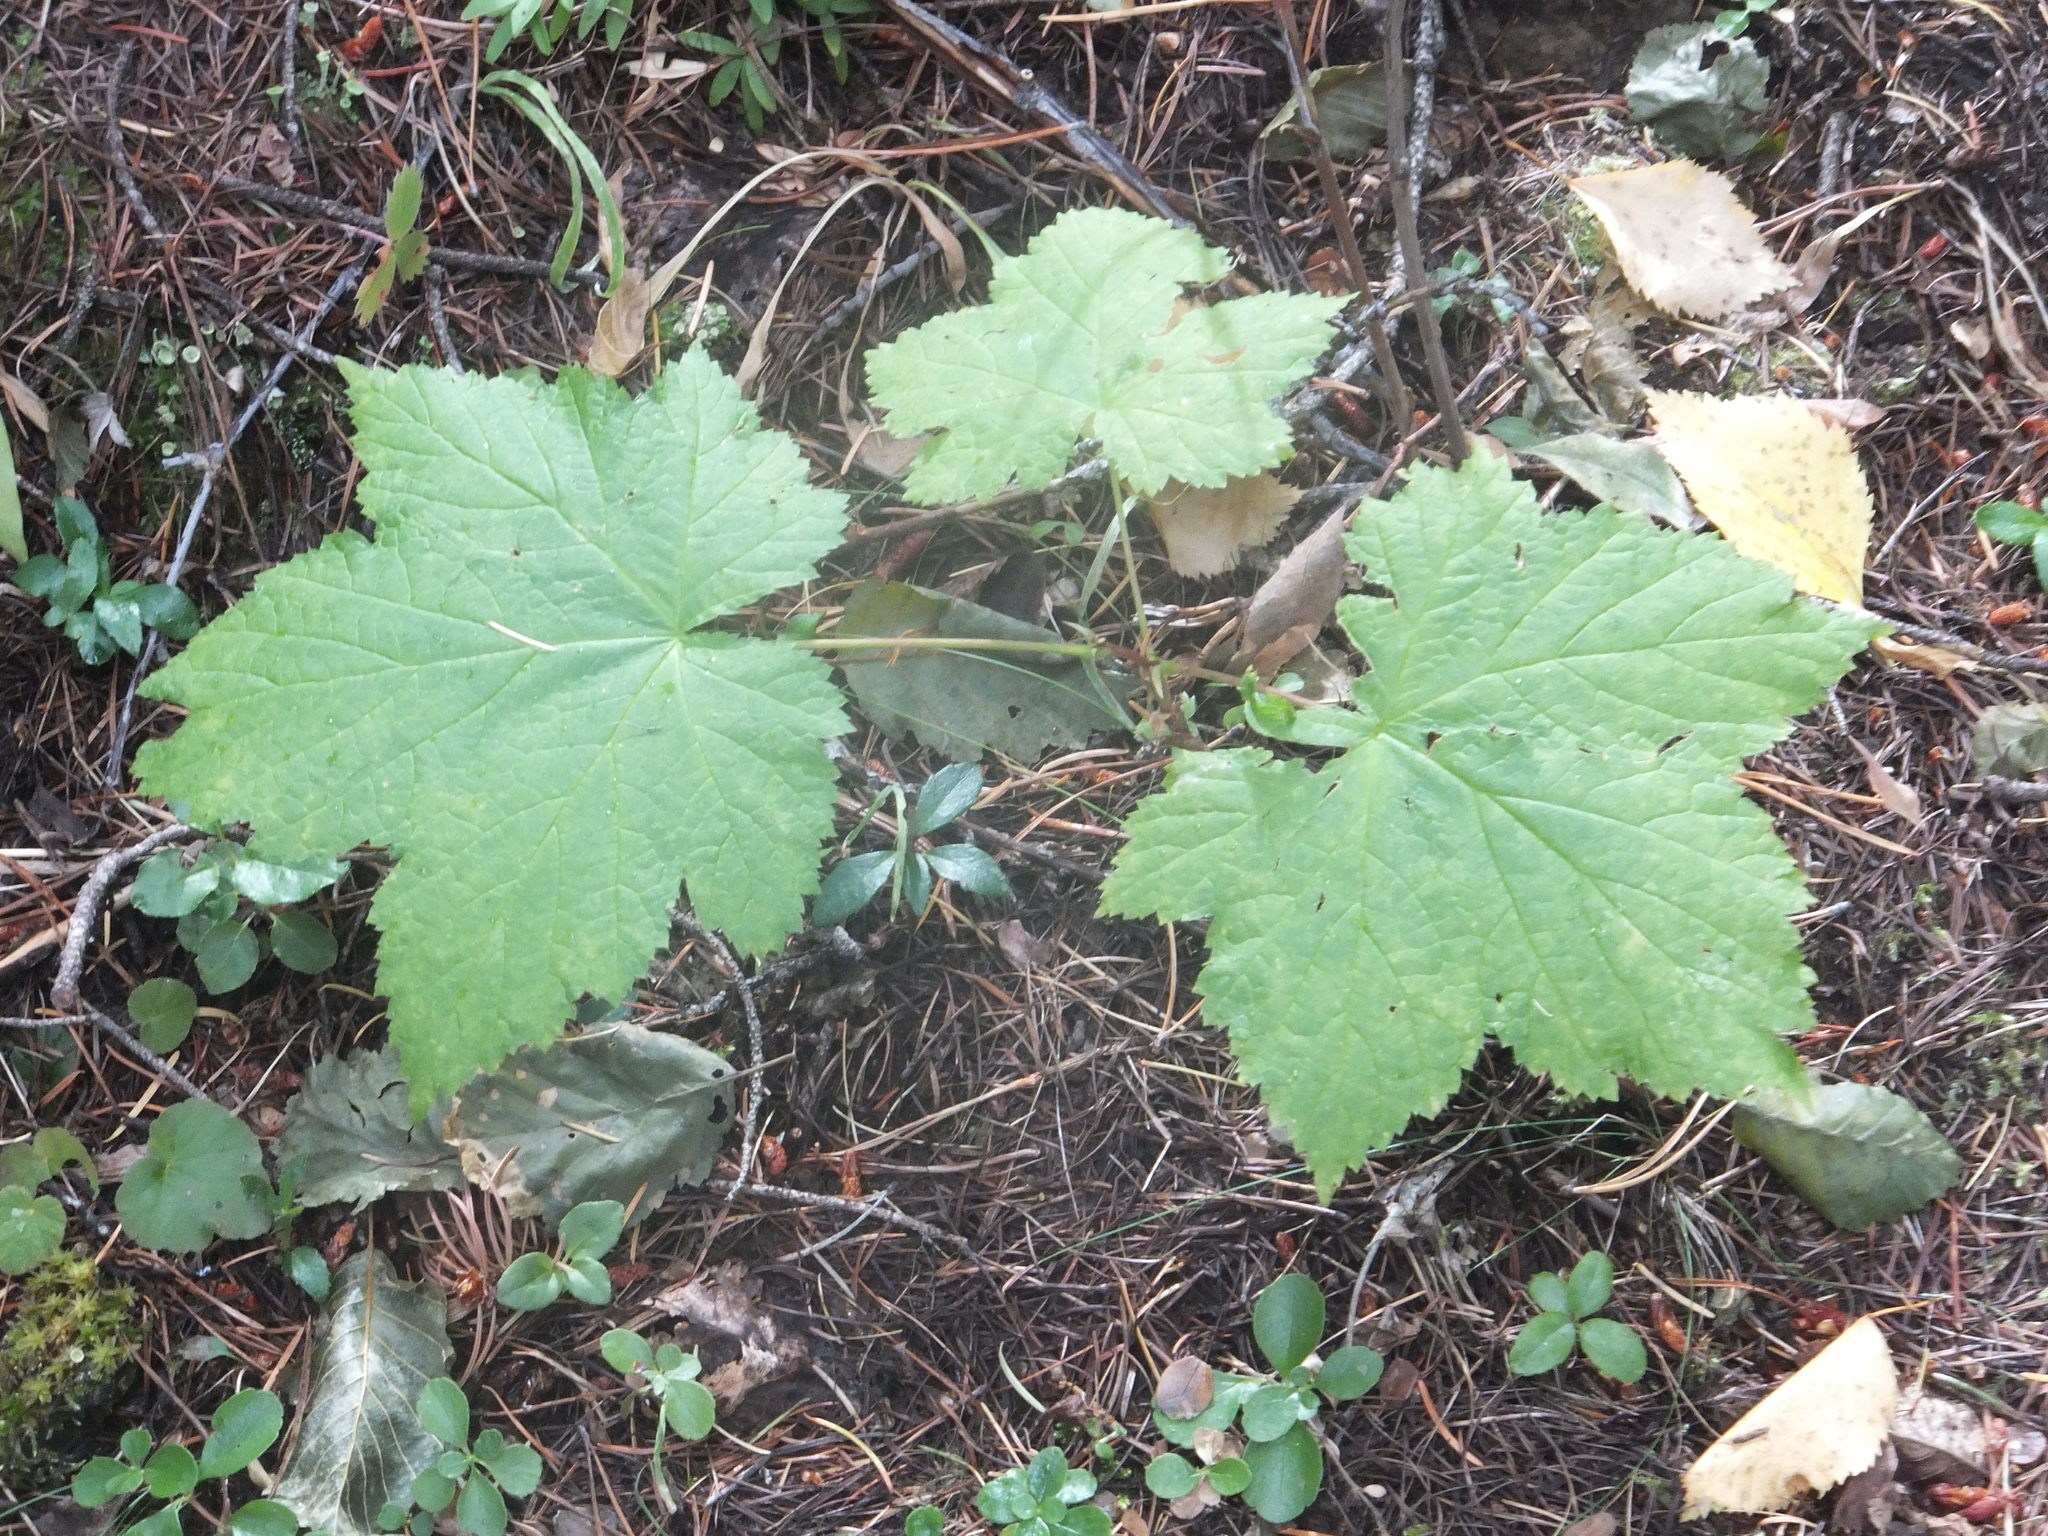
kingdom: Plantae
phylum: Tracheophyta
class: Magnoliopsida
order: Rosales
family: Rosaceae
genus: Rubus
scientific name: Rubus parviflorus
